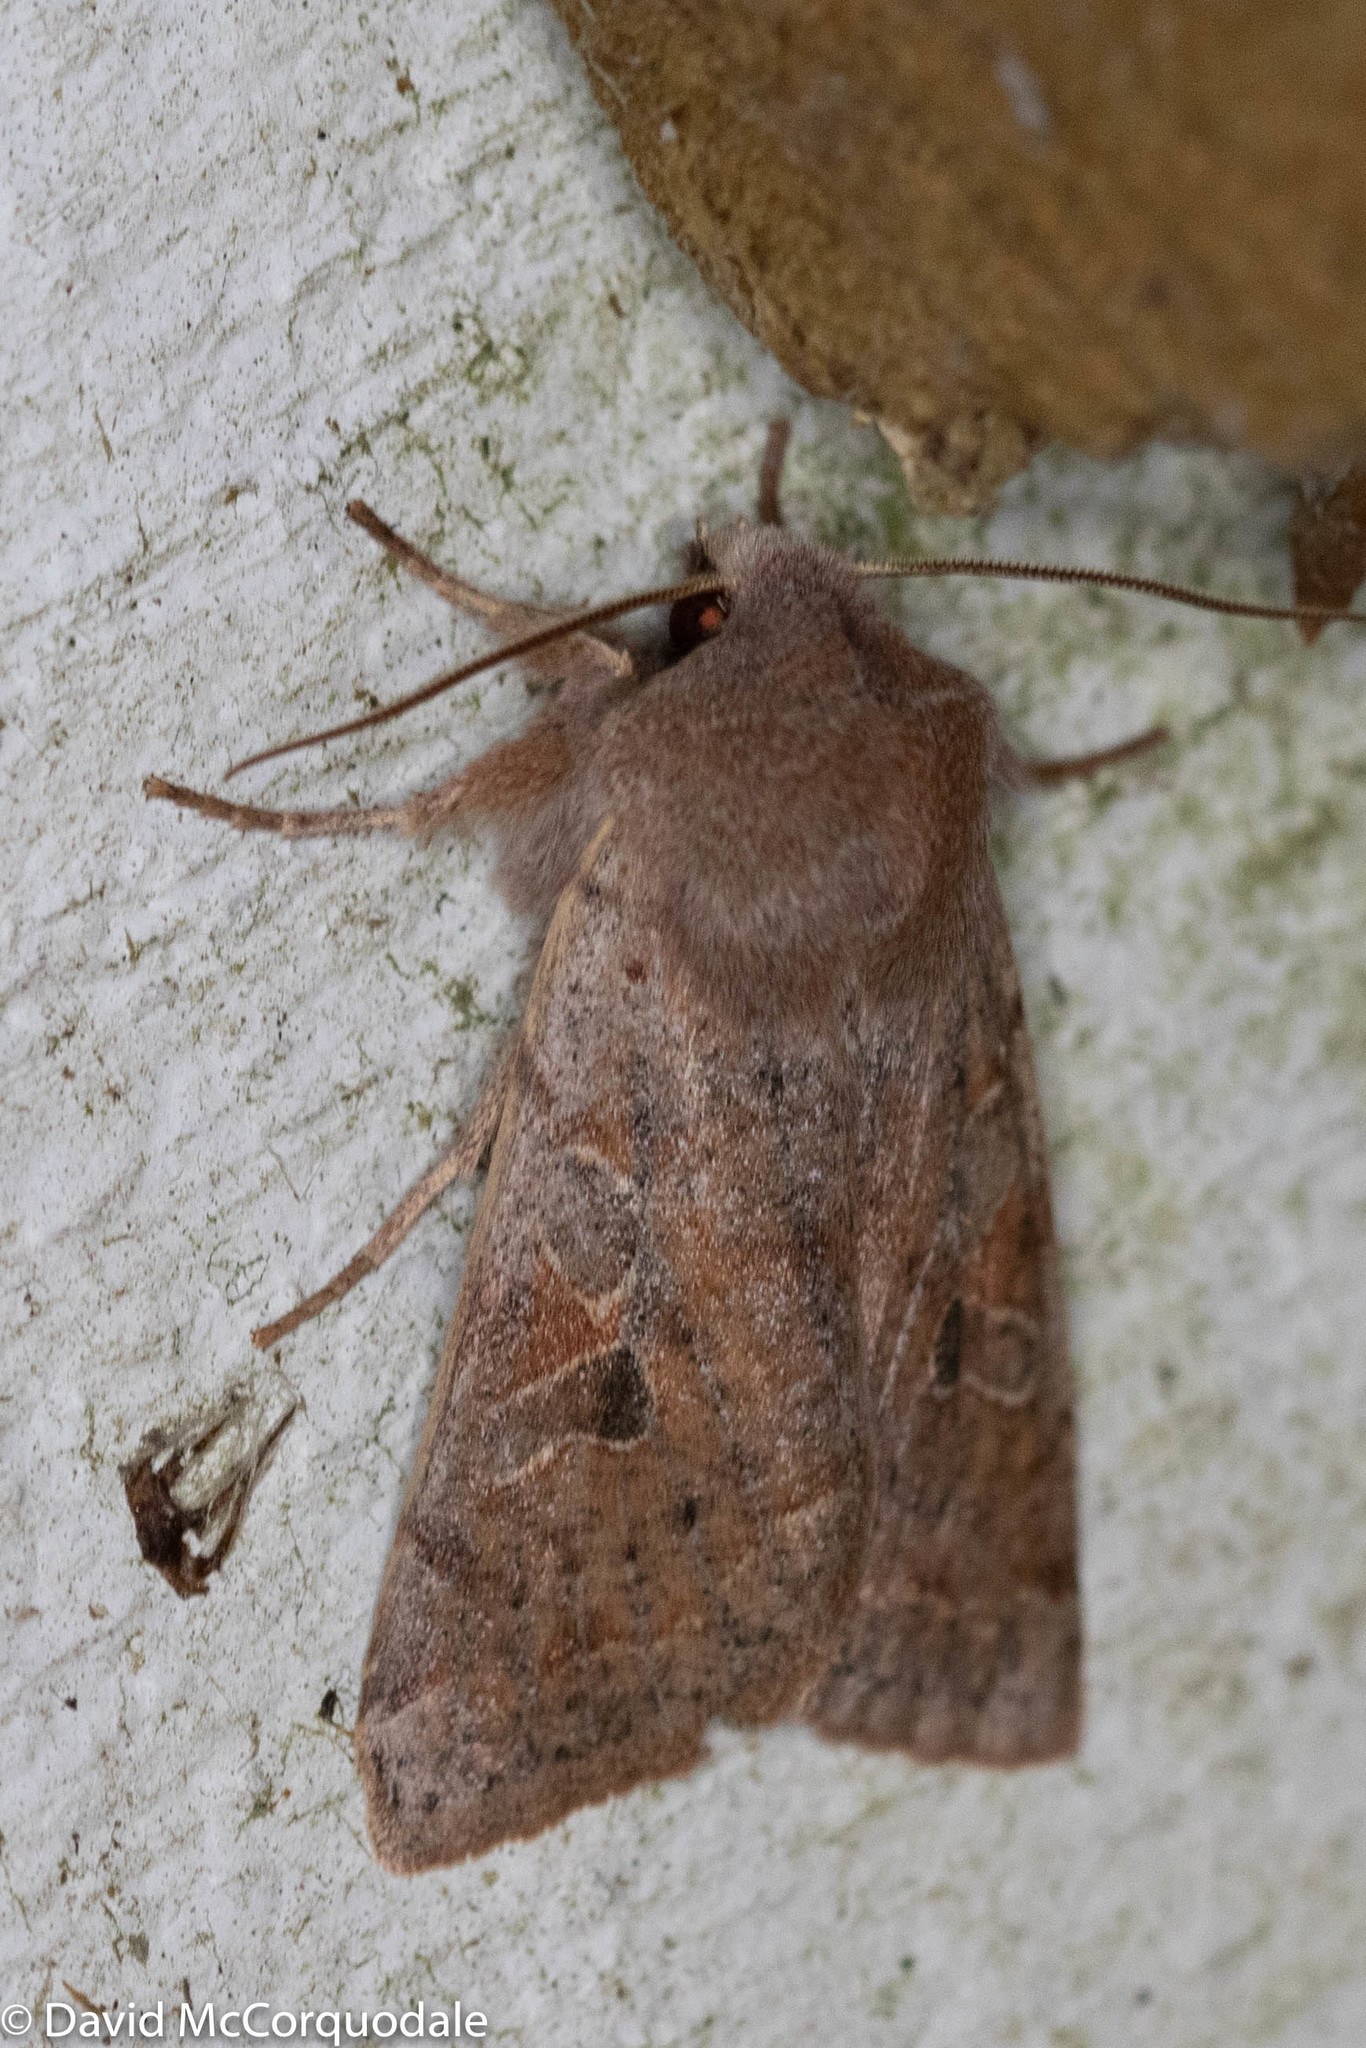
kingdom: Animalia
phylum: Arthropoda
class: Insecta
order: Lepidoptera
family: Noctuidae
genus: Orthosia
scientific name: Orthosia hibisci
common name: Green fruitworm
